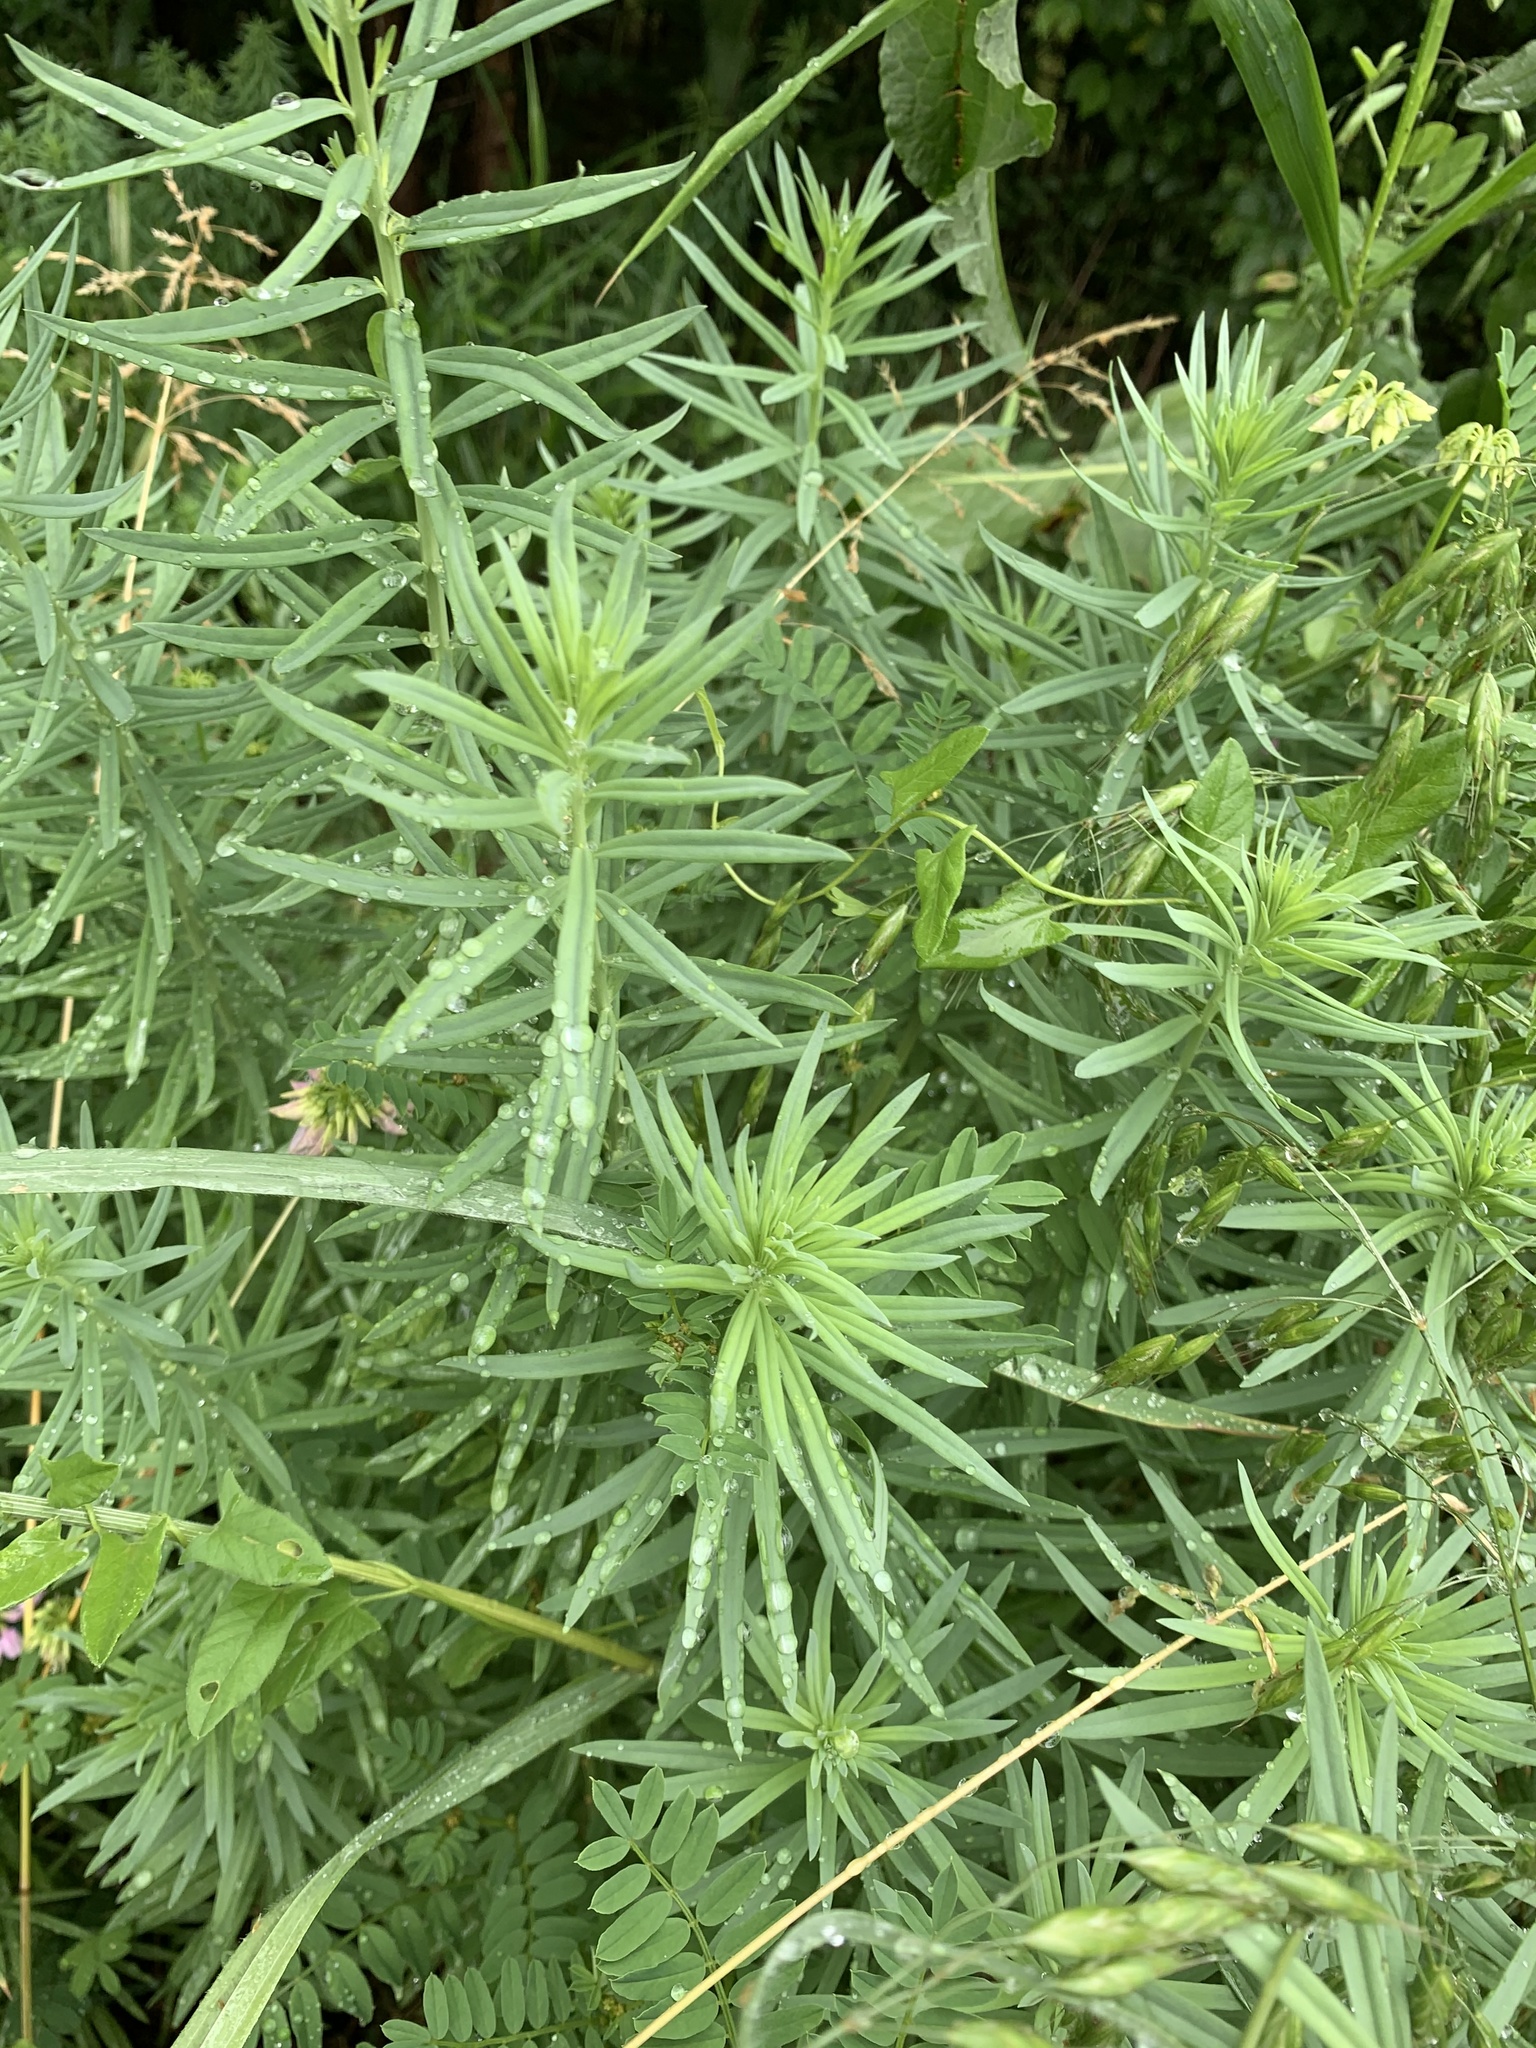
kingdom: Plantae
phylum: Tracheophyta
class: Magnoliopsida
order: Lamiales
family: Plantaginaceae
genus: Linaria
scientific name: Linaria vulgaris
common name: Butter and eggs
